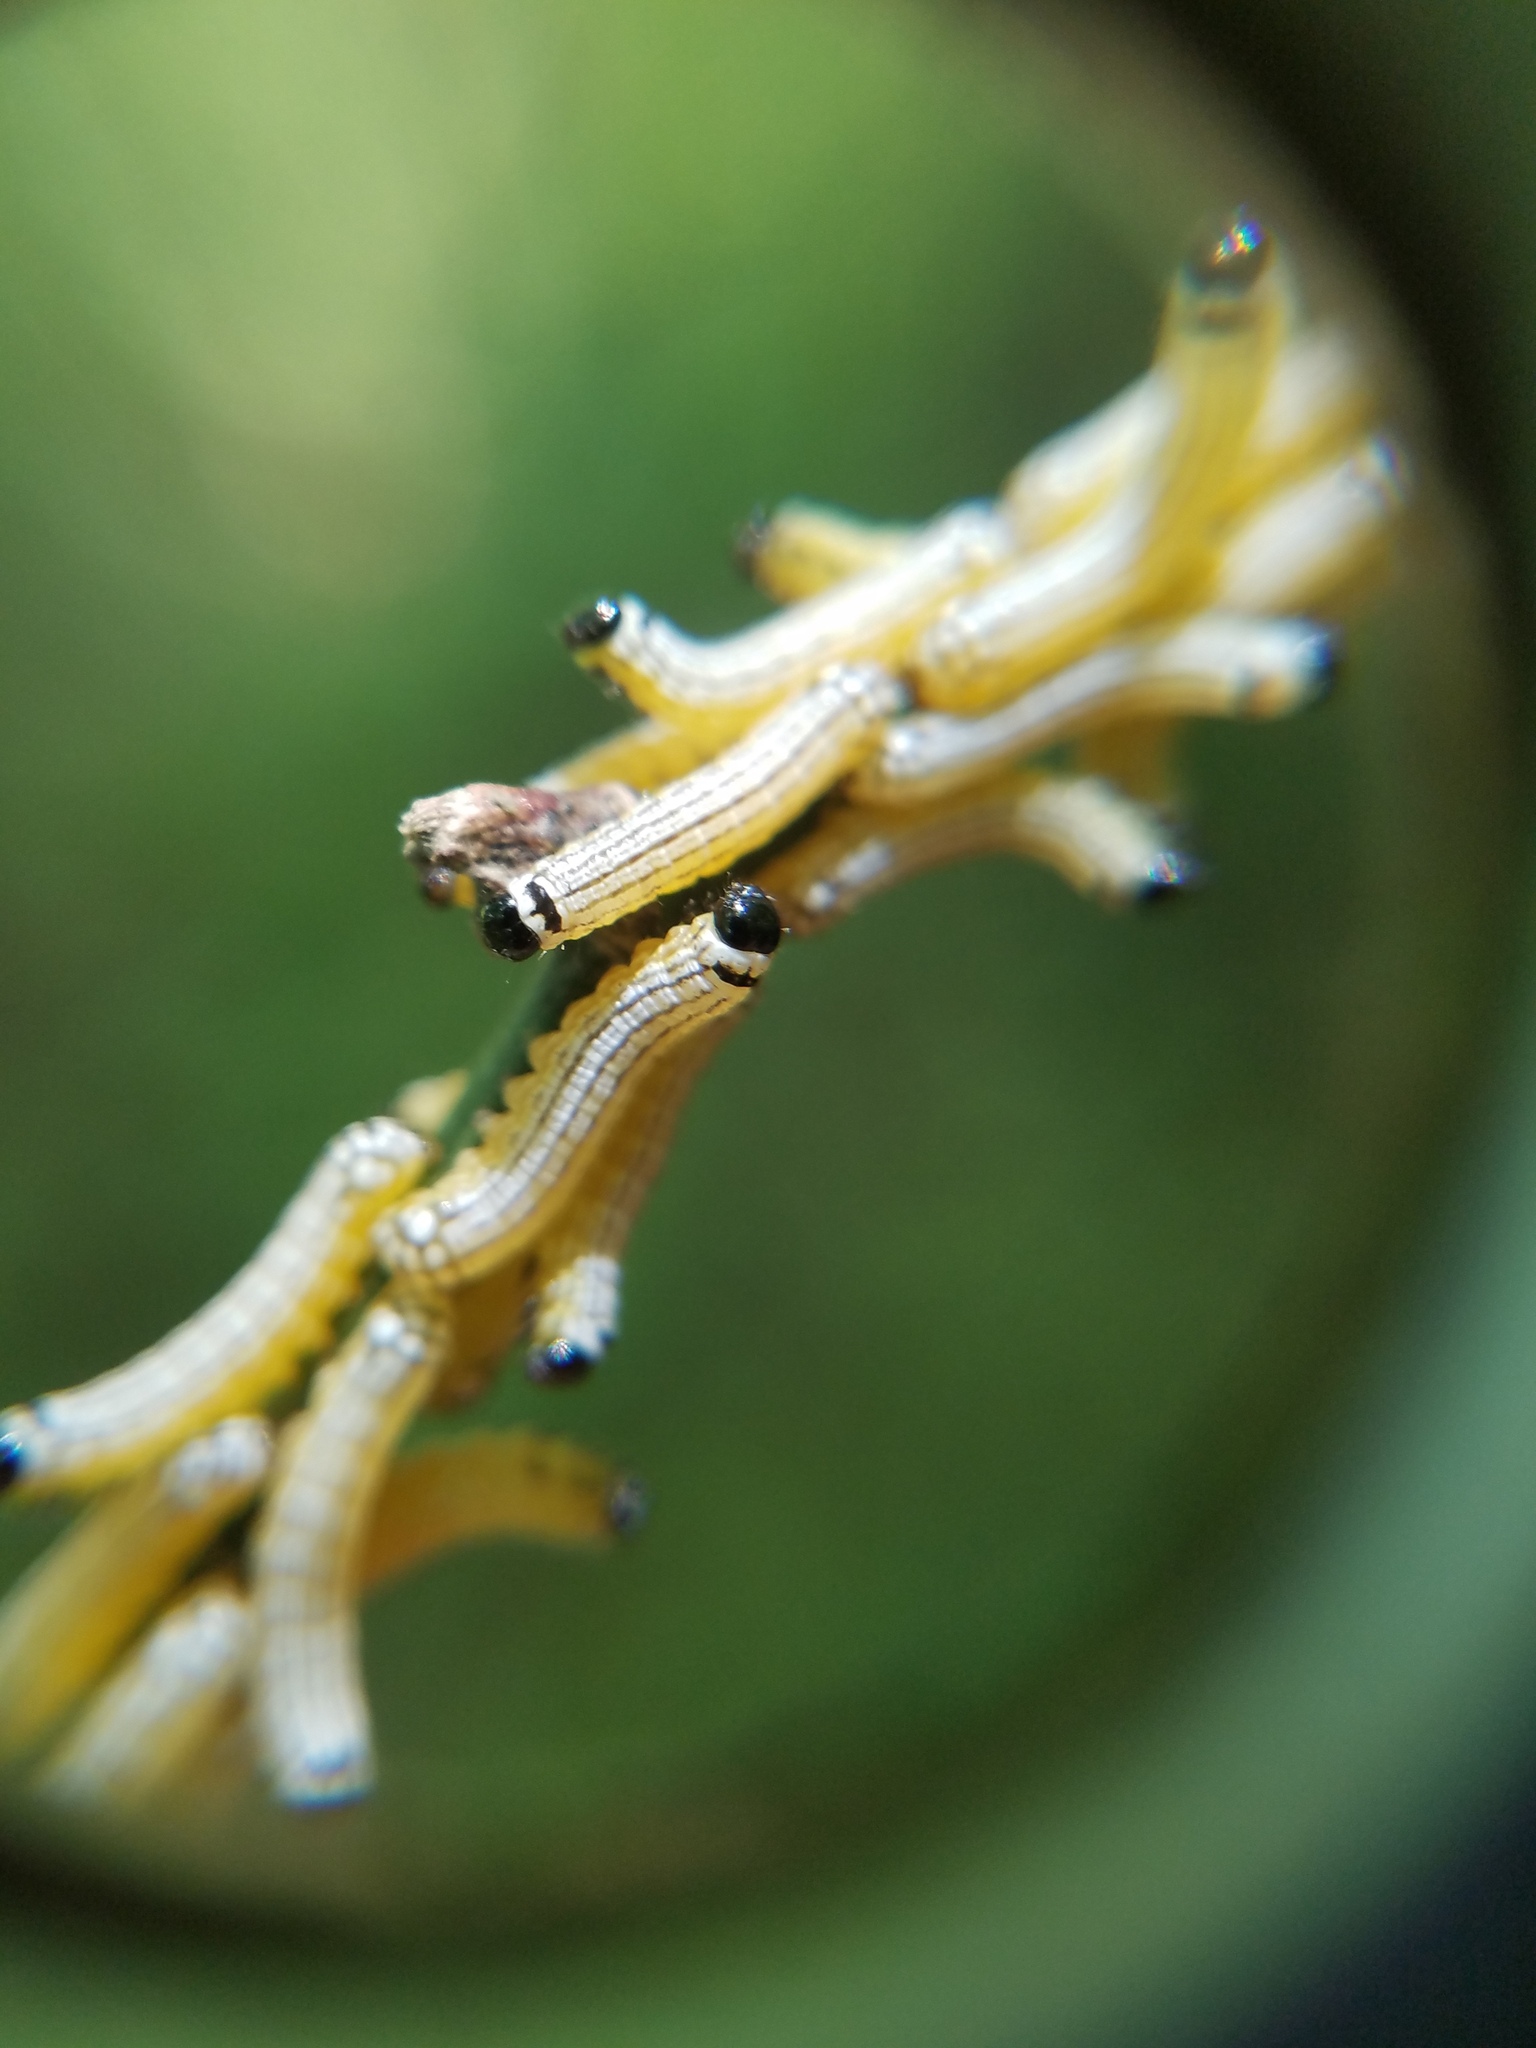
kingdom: Animalia
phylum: Arthropoda
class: Insecta
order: Lepidoptera
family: Noctuidae
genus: Phosphila
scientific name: Phosphila turbulenta
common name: Turbulent phosphila moth
